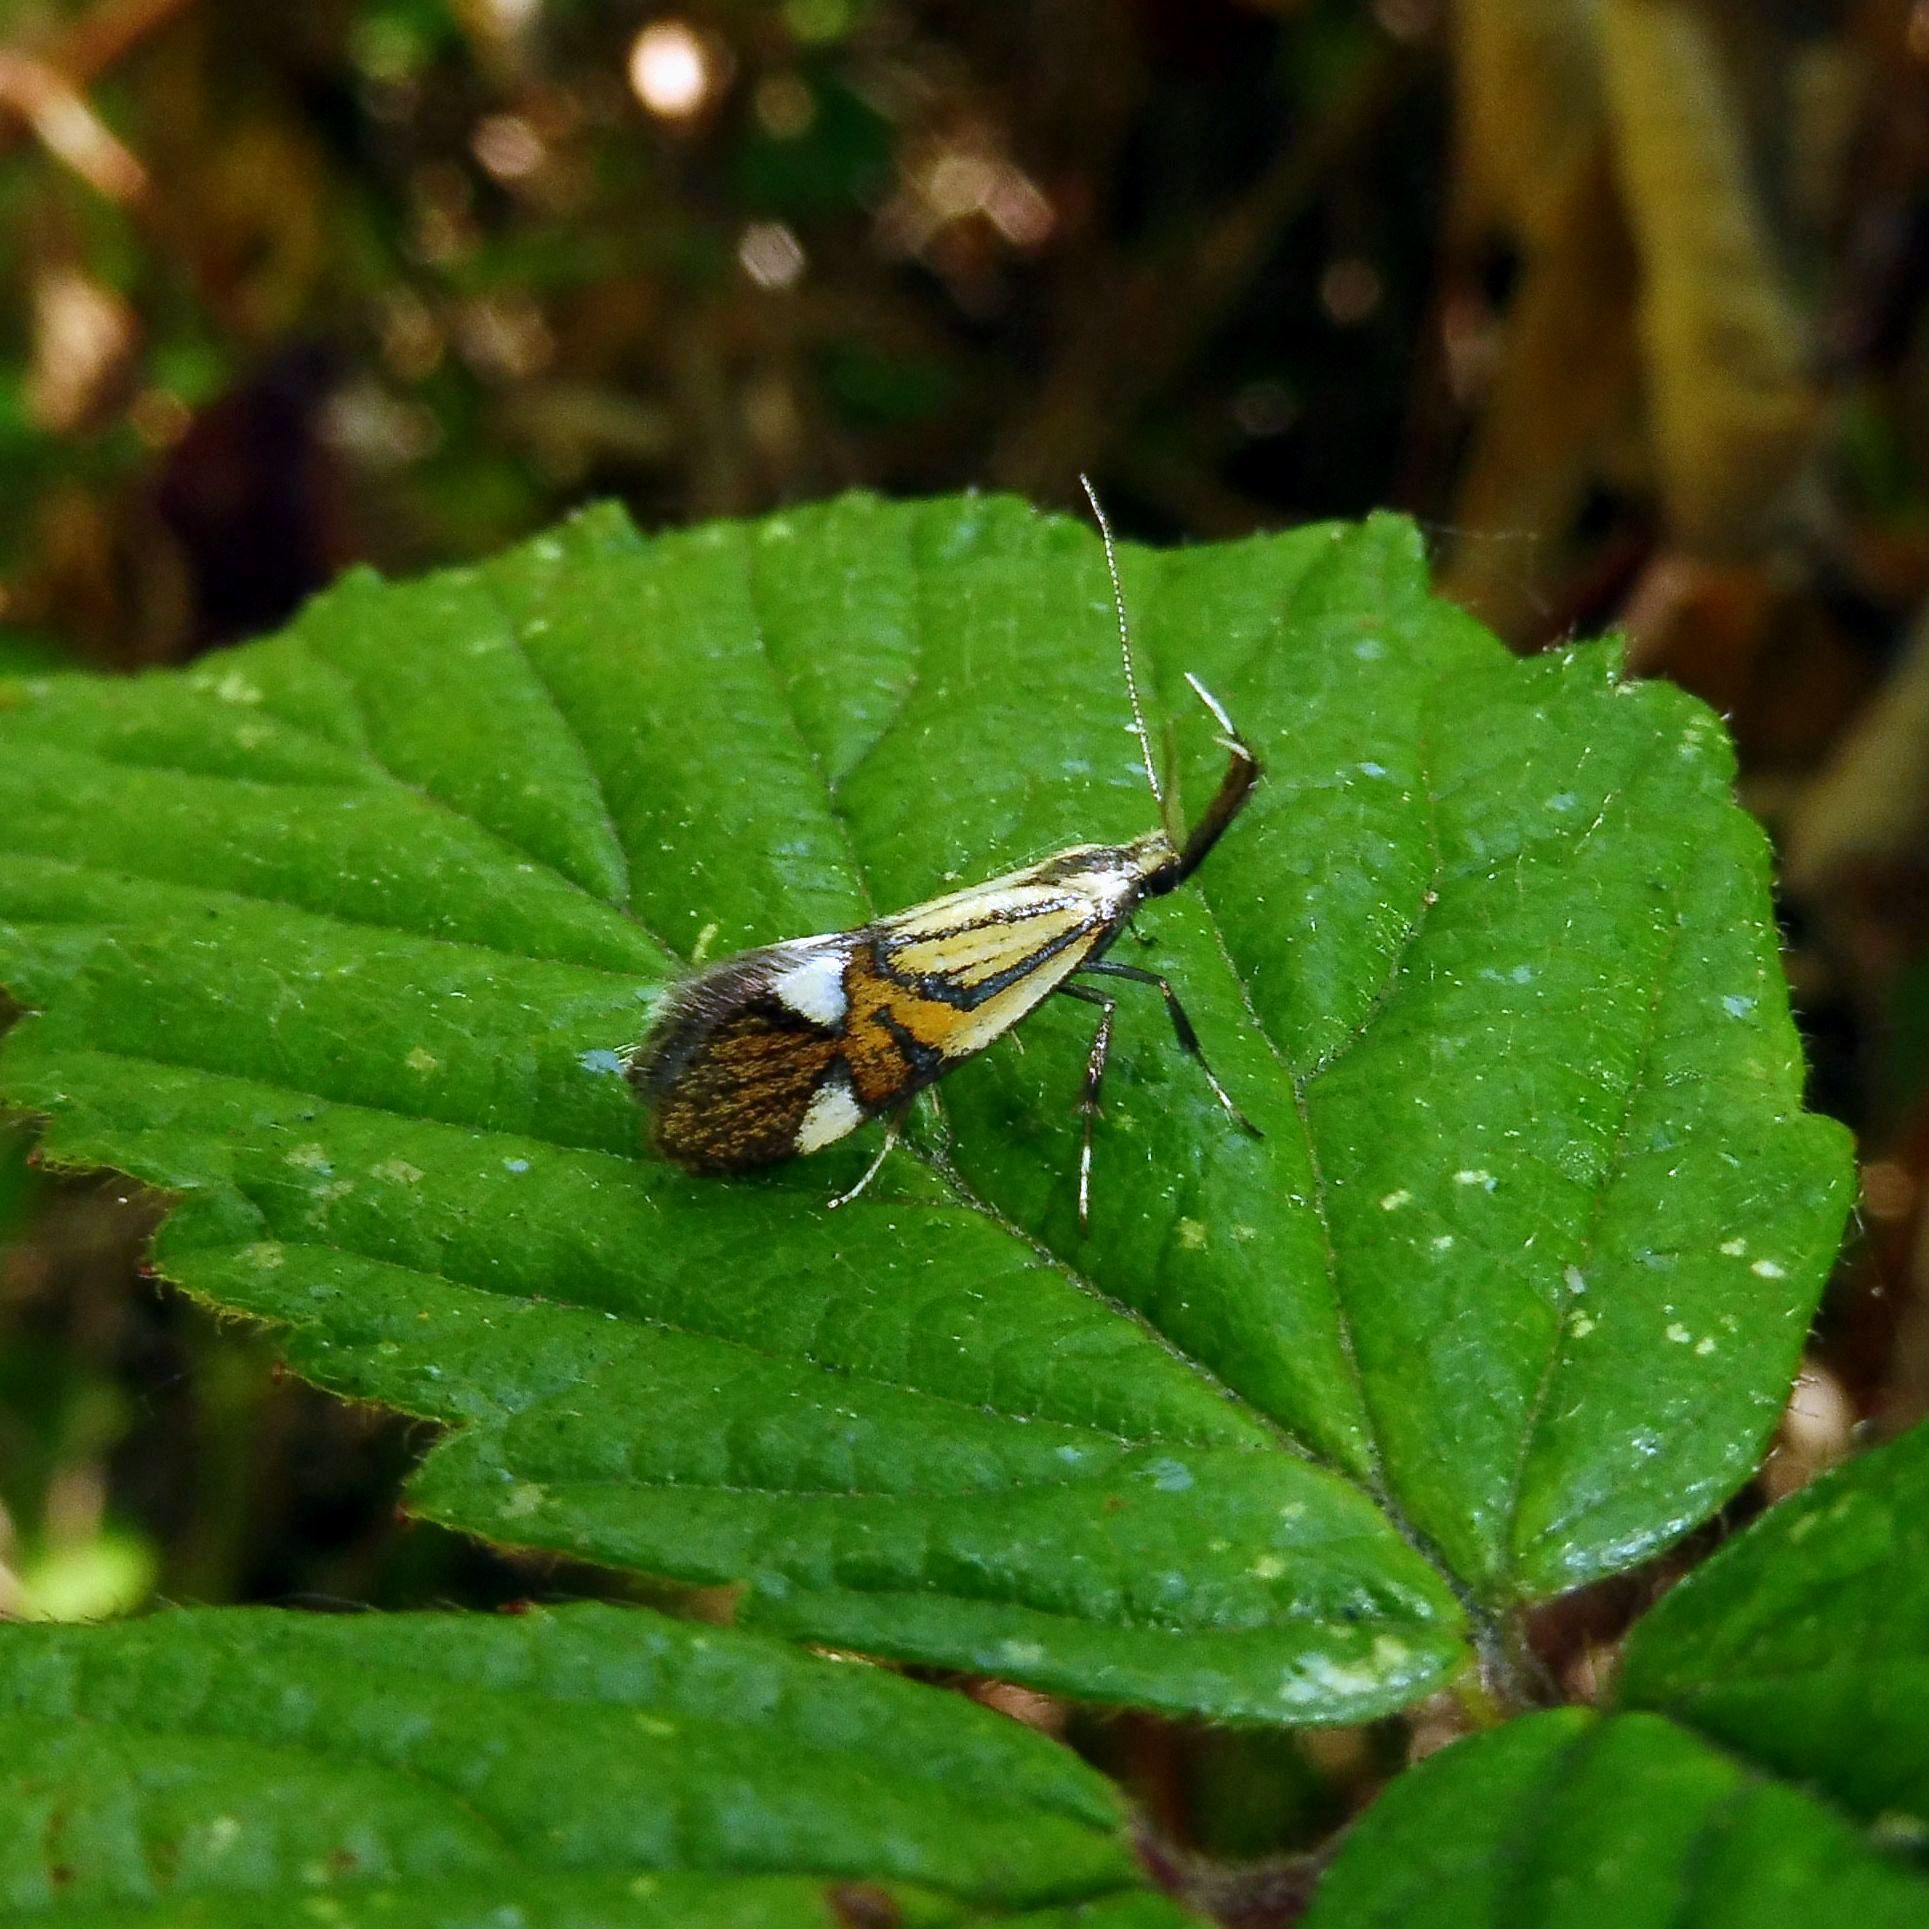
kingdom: Animalia
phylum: Arthropoda
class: Insecta
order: Lepidoptera
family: Oecophoridae
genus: Oecophora
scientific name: Oecophora Alabonia geoffrella
